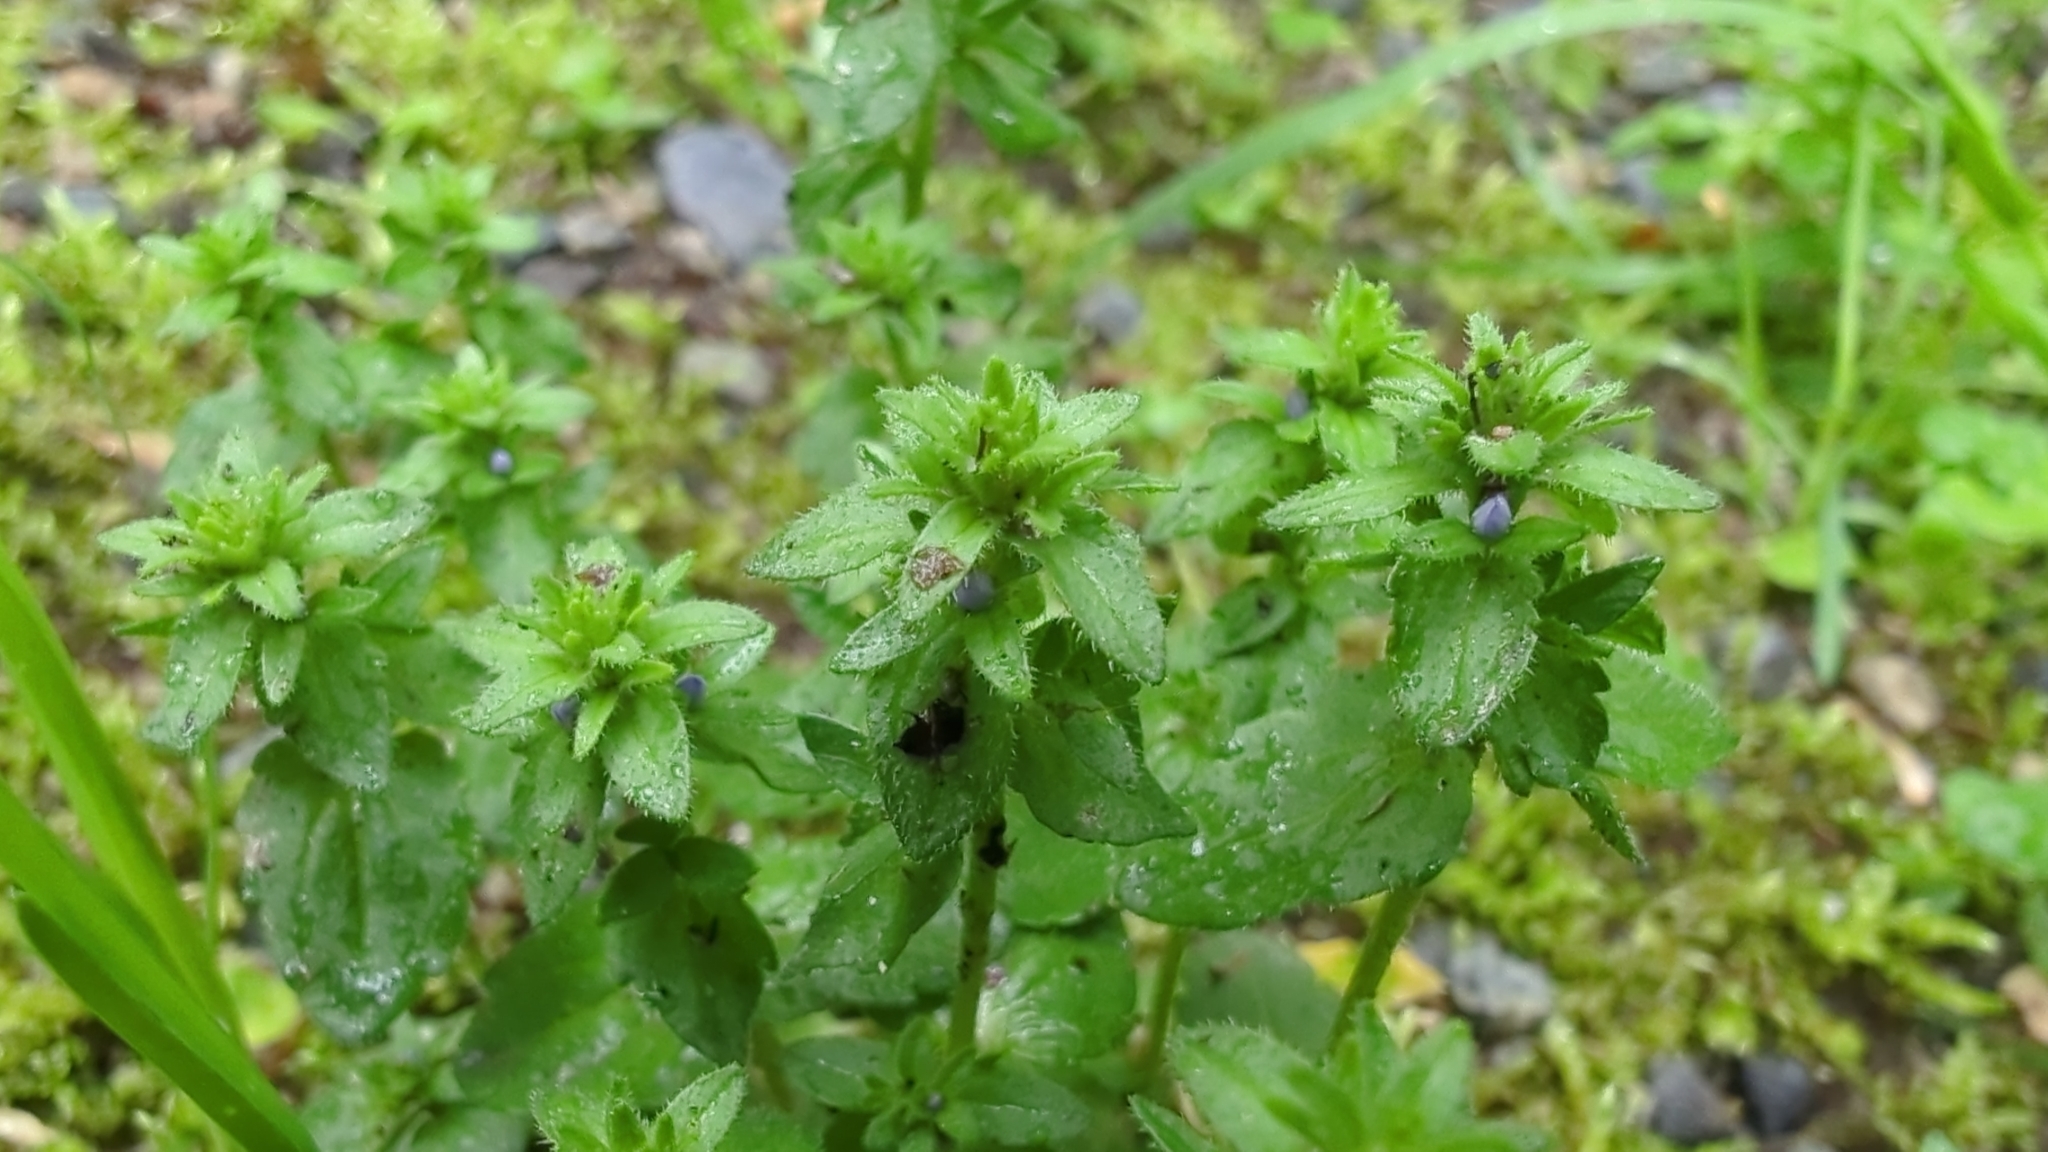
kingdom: Plantae
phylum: Tracheophyta
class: Magnoliopsida
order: Lamiales
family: Plantaginaceae
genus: Veronica
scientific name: Veronica arvensis
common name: Corn speedwell
